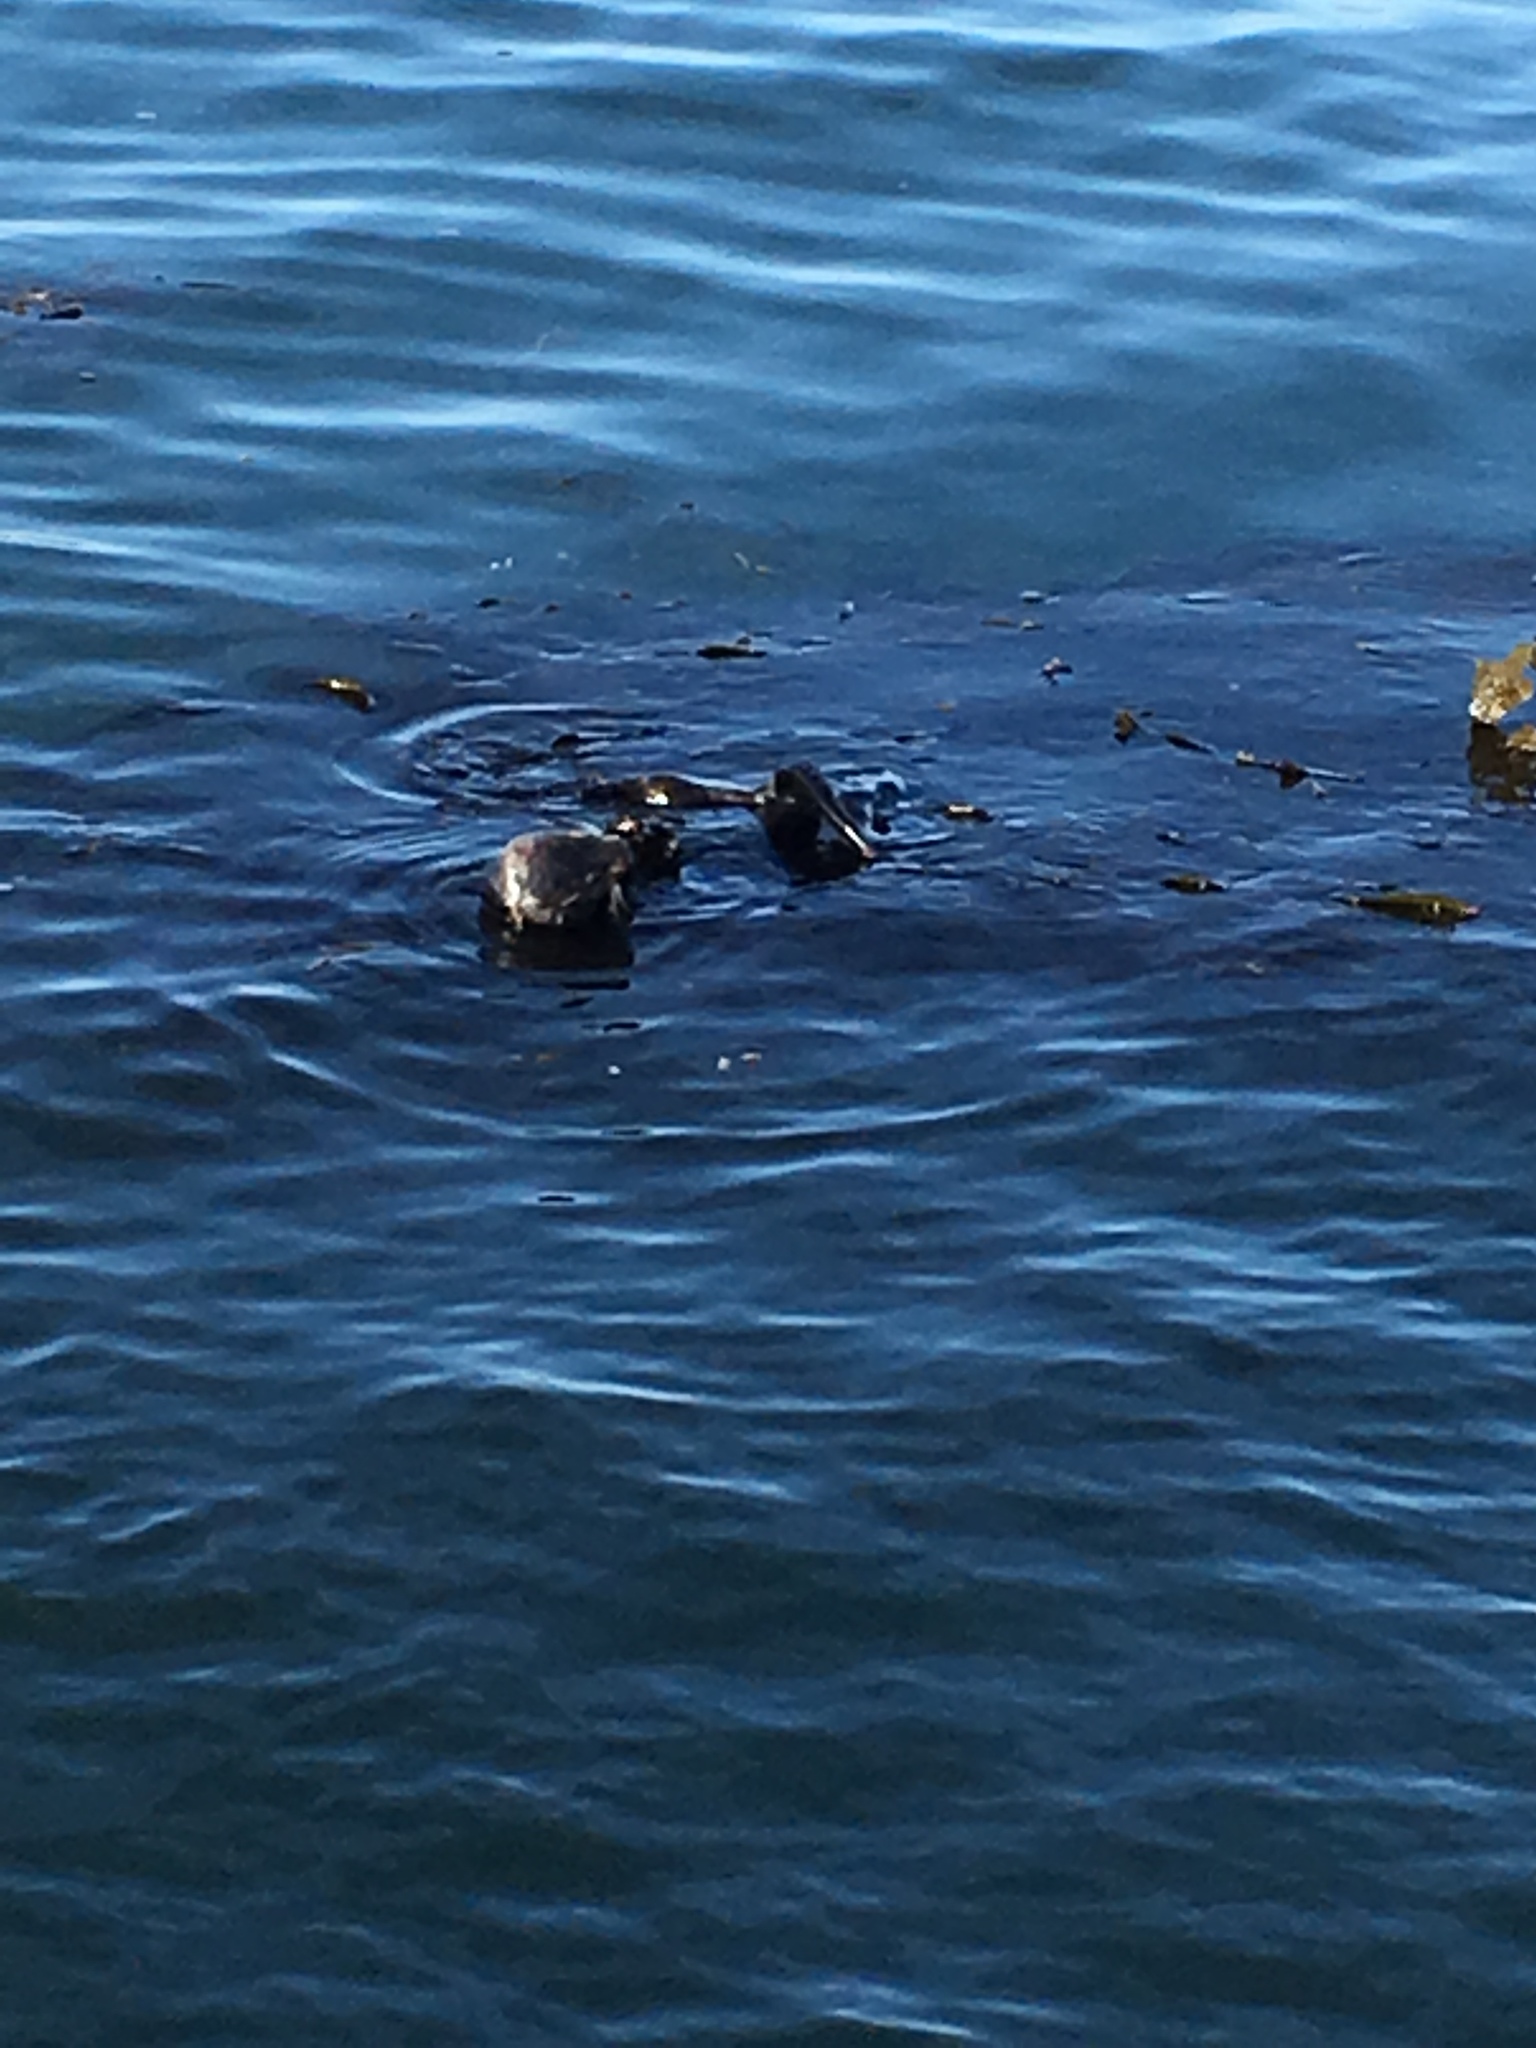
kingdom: Animalia
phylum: Chordata
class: Mammalia
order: Carnivora
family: Mustelidae
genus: Enhydra
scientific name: Enhydra lutris
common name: Sea otter
